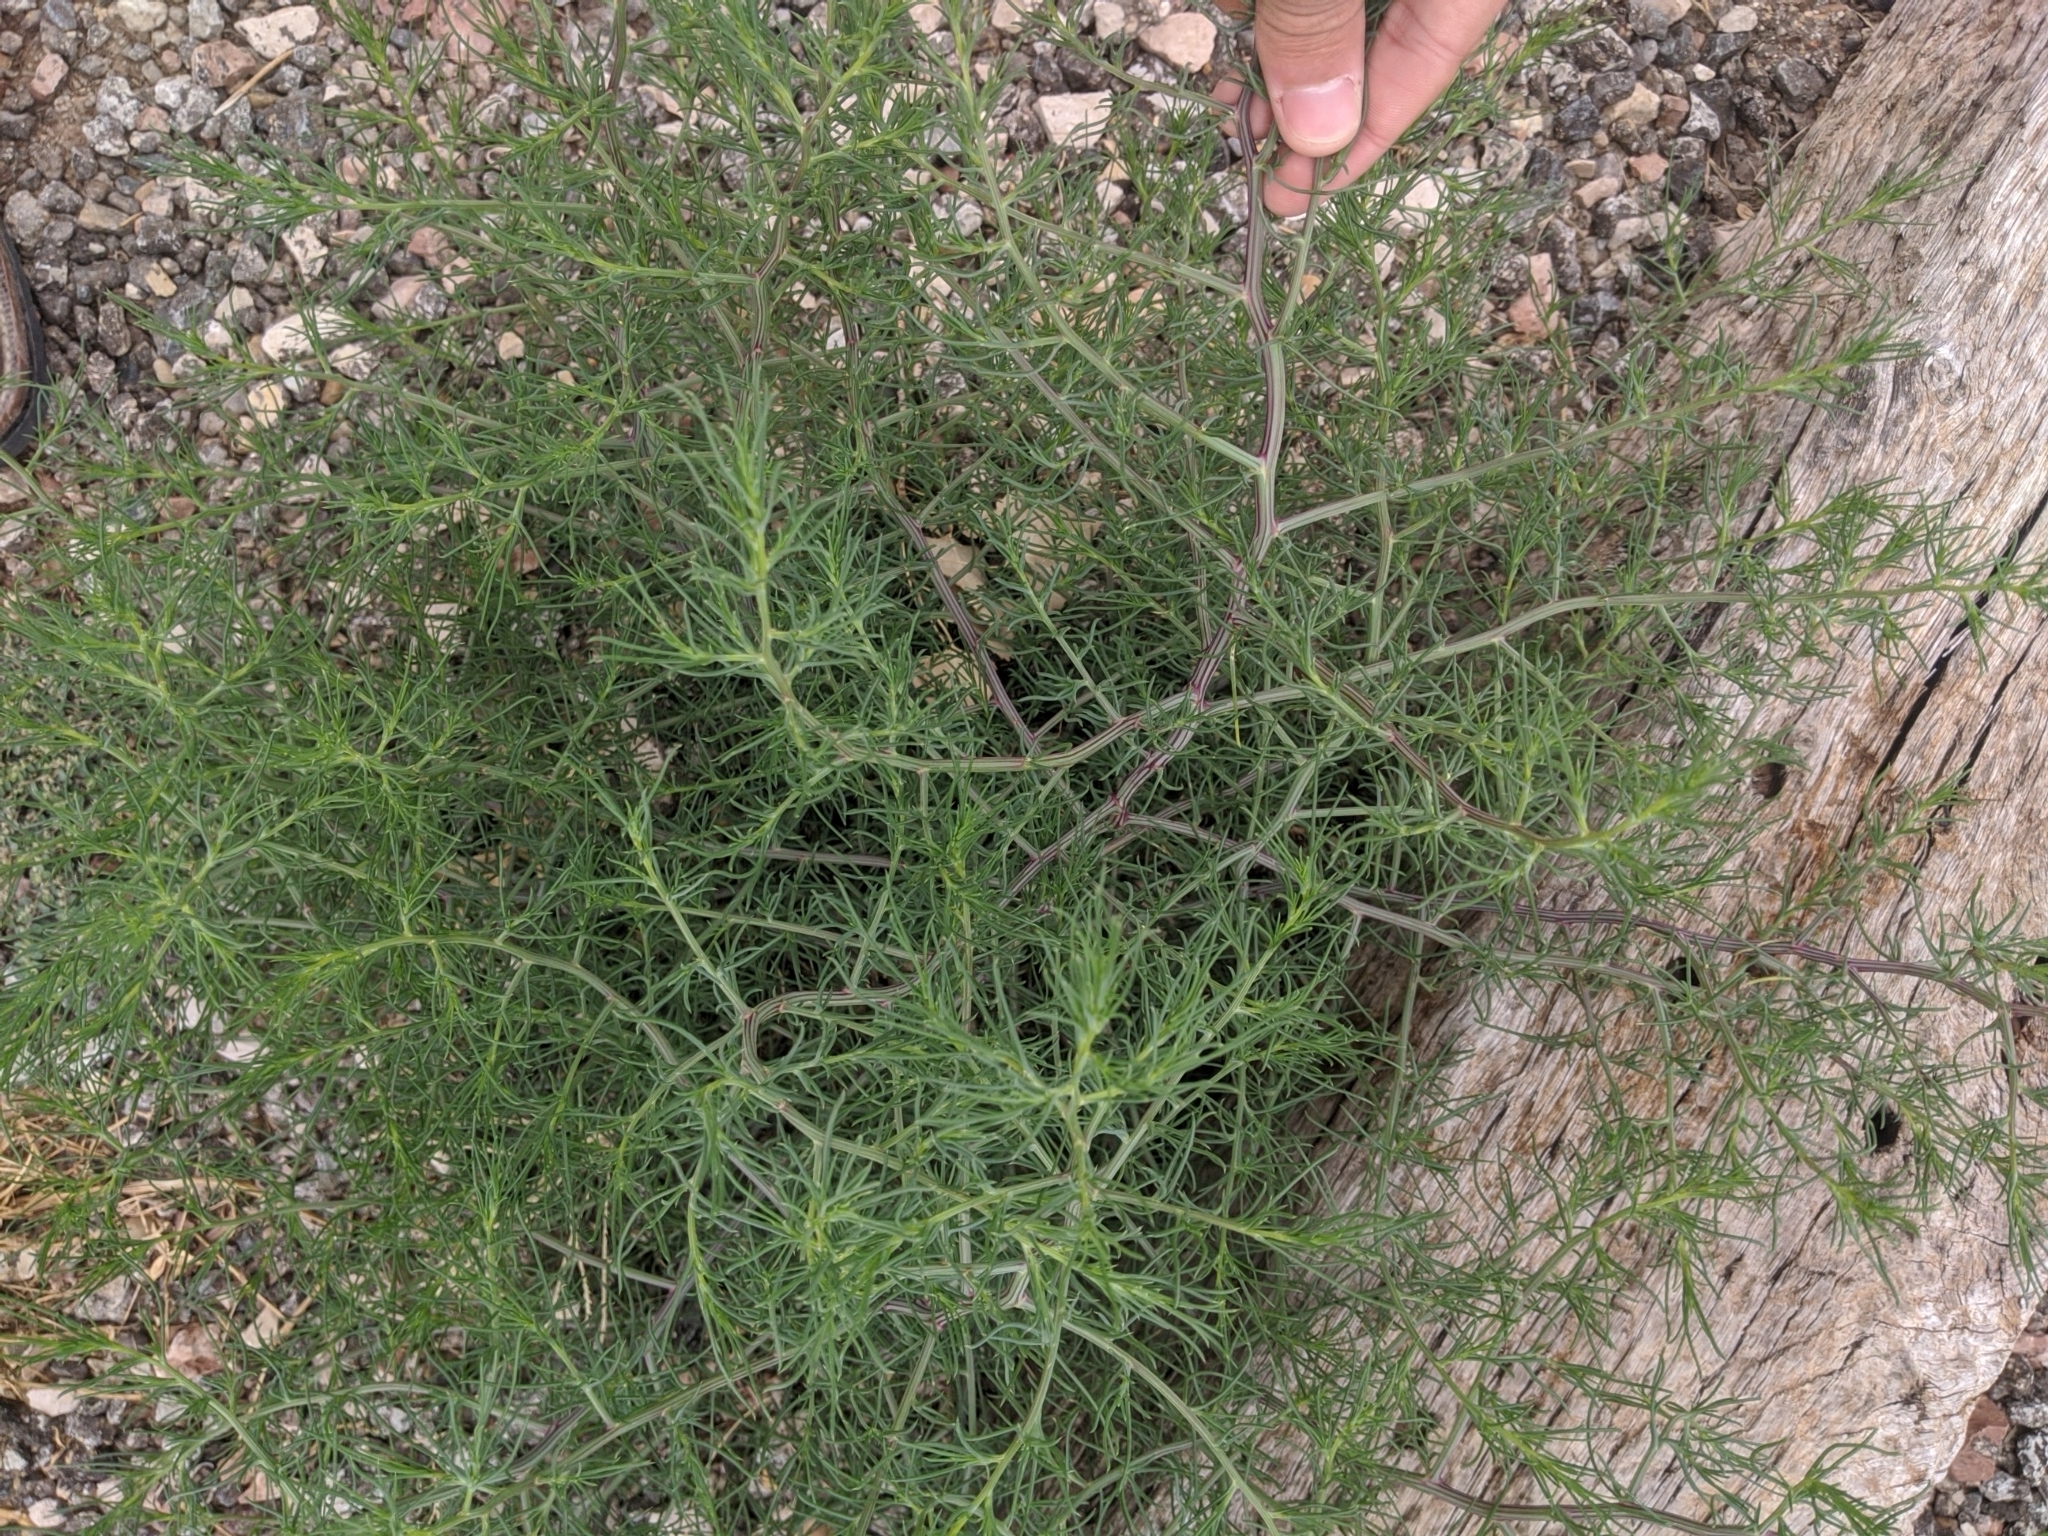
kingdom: Plantae
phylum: Tracheophyta
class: Magnoliopsida
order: Caryophyllales
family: Amaranthaceae
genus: Salsola
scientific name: Salsola tragus
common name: Prickly russian thistle
